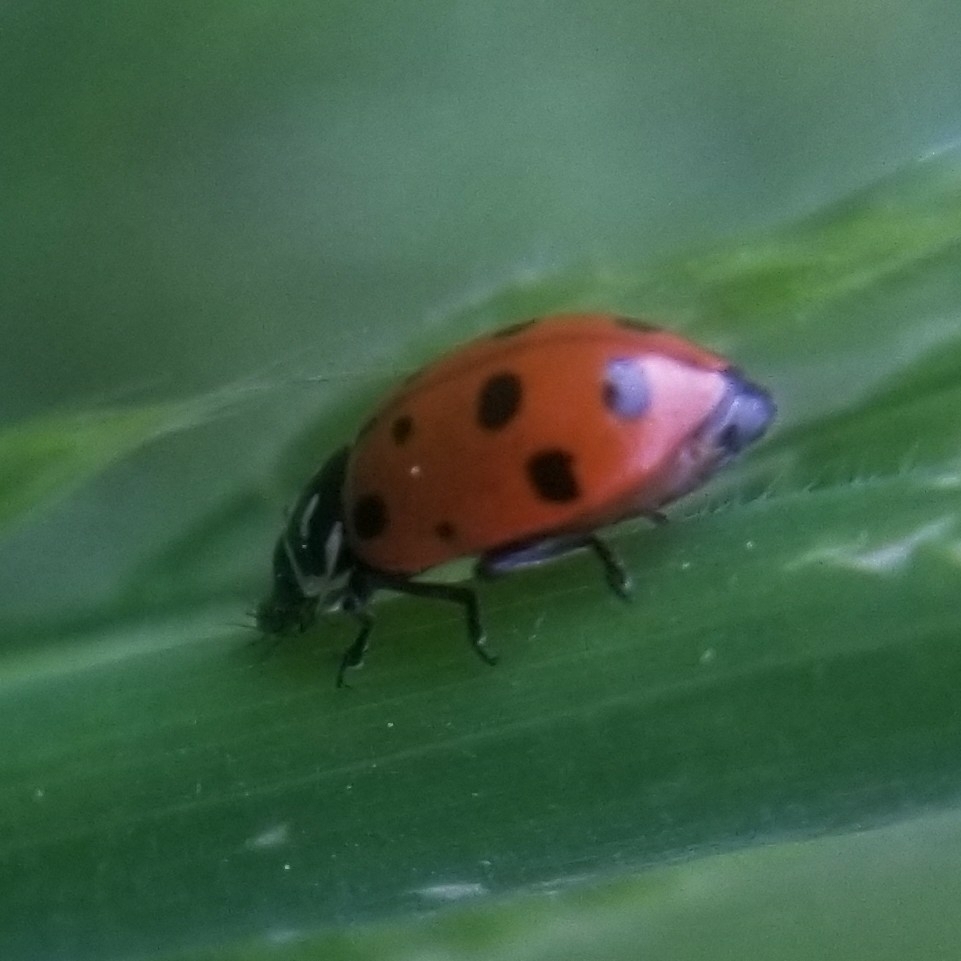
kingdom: Animalia
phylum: Arthropoda
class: Insecta
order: Coleoptera
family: Coccinellidae
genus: Hippodamia
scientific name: Hippodamia convergens
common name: Convergent lady beetle
